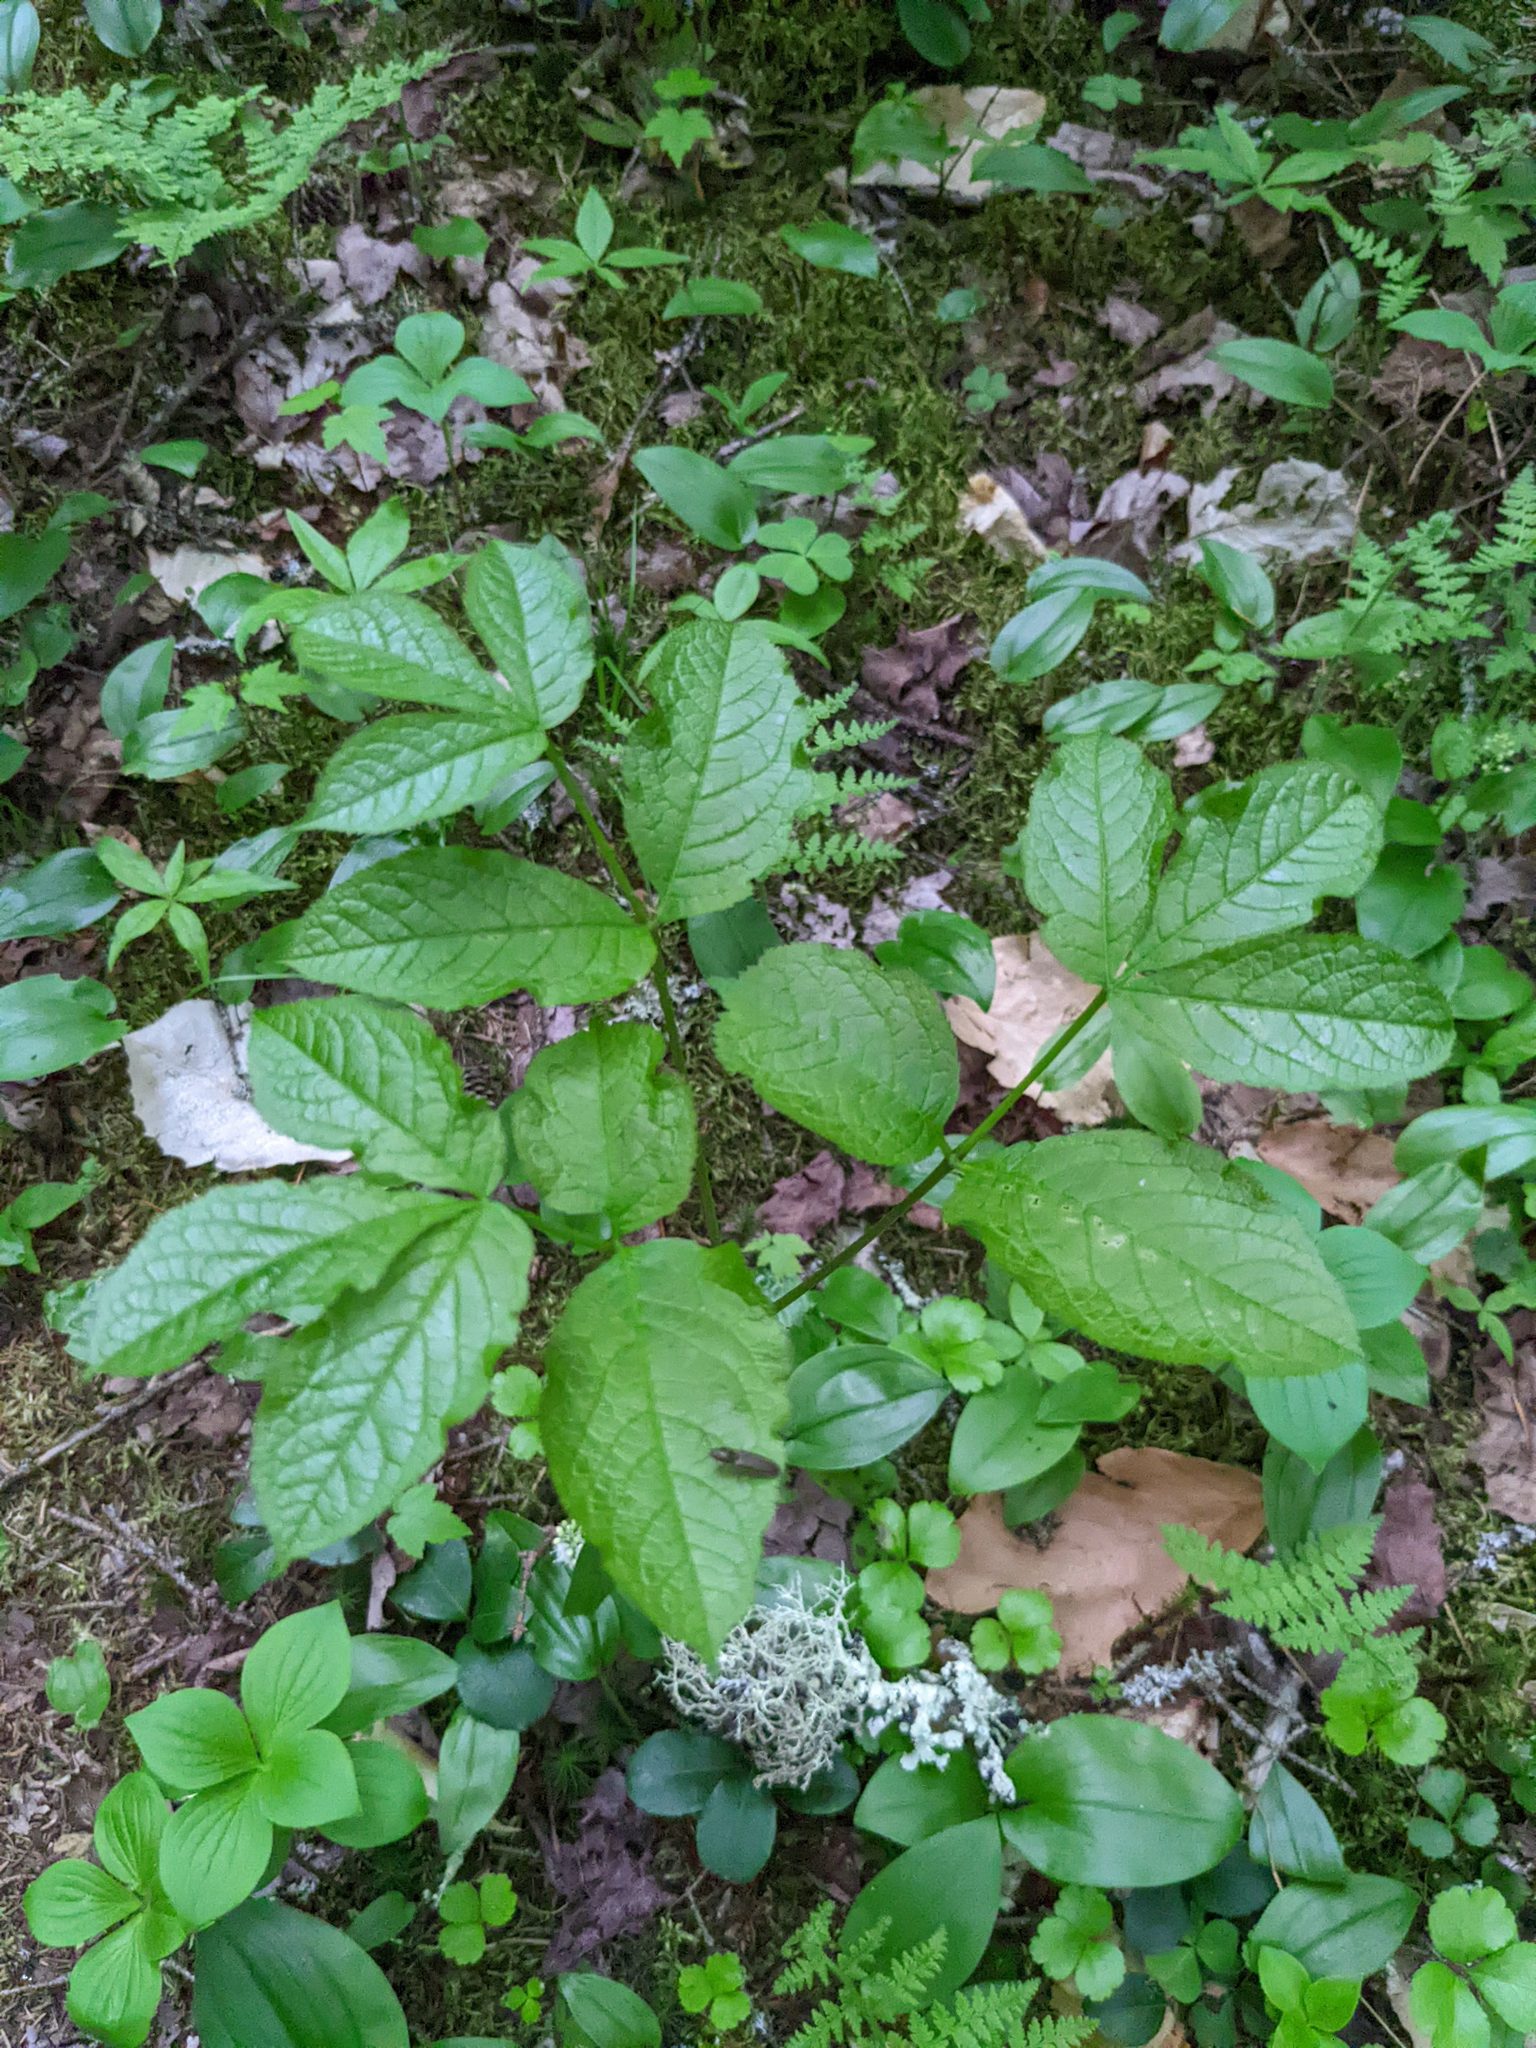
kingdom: Plantae
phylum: Tracheophyta
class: Magnoliopsida
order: Apiales
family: Araliaceae
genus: Aralia
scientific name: Aralia nudicaulis
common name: Wild sarsaparilla
